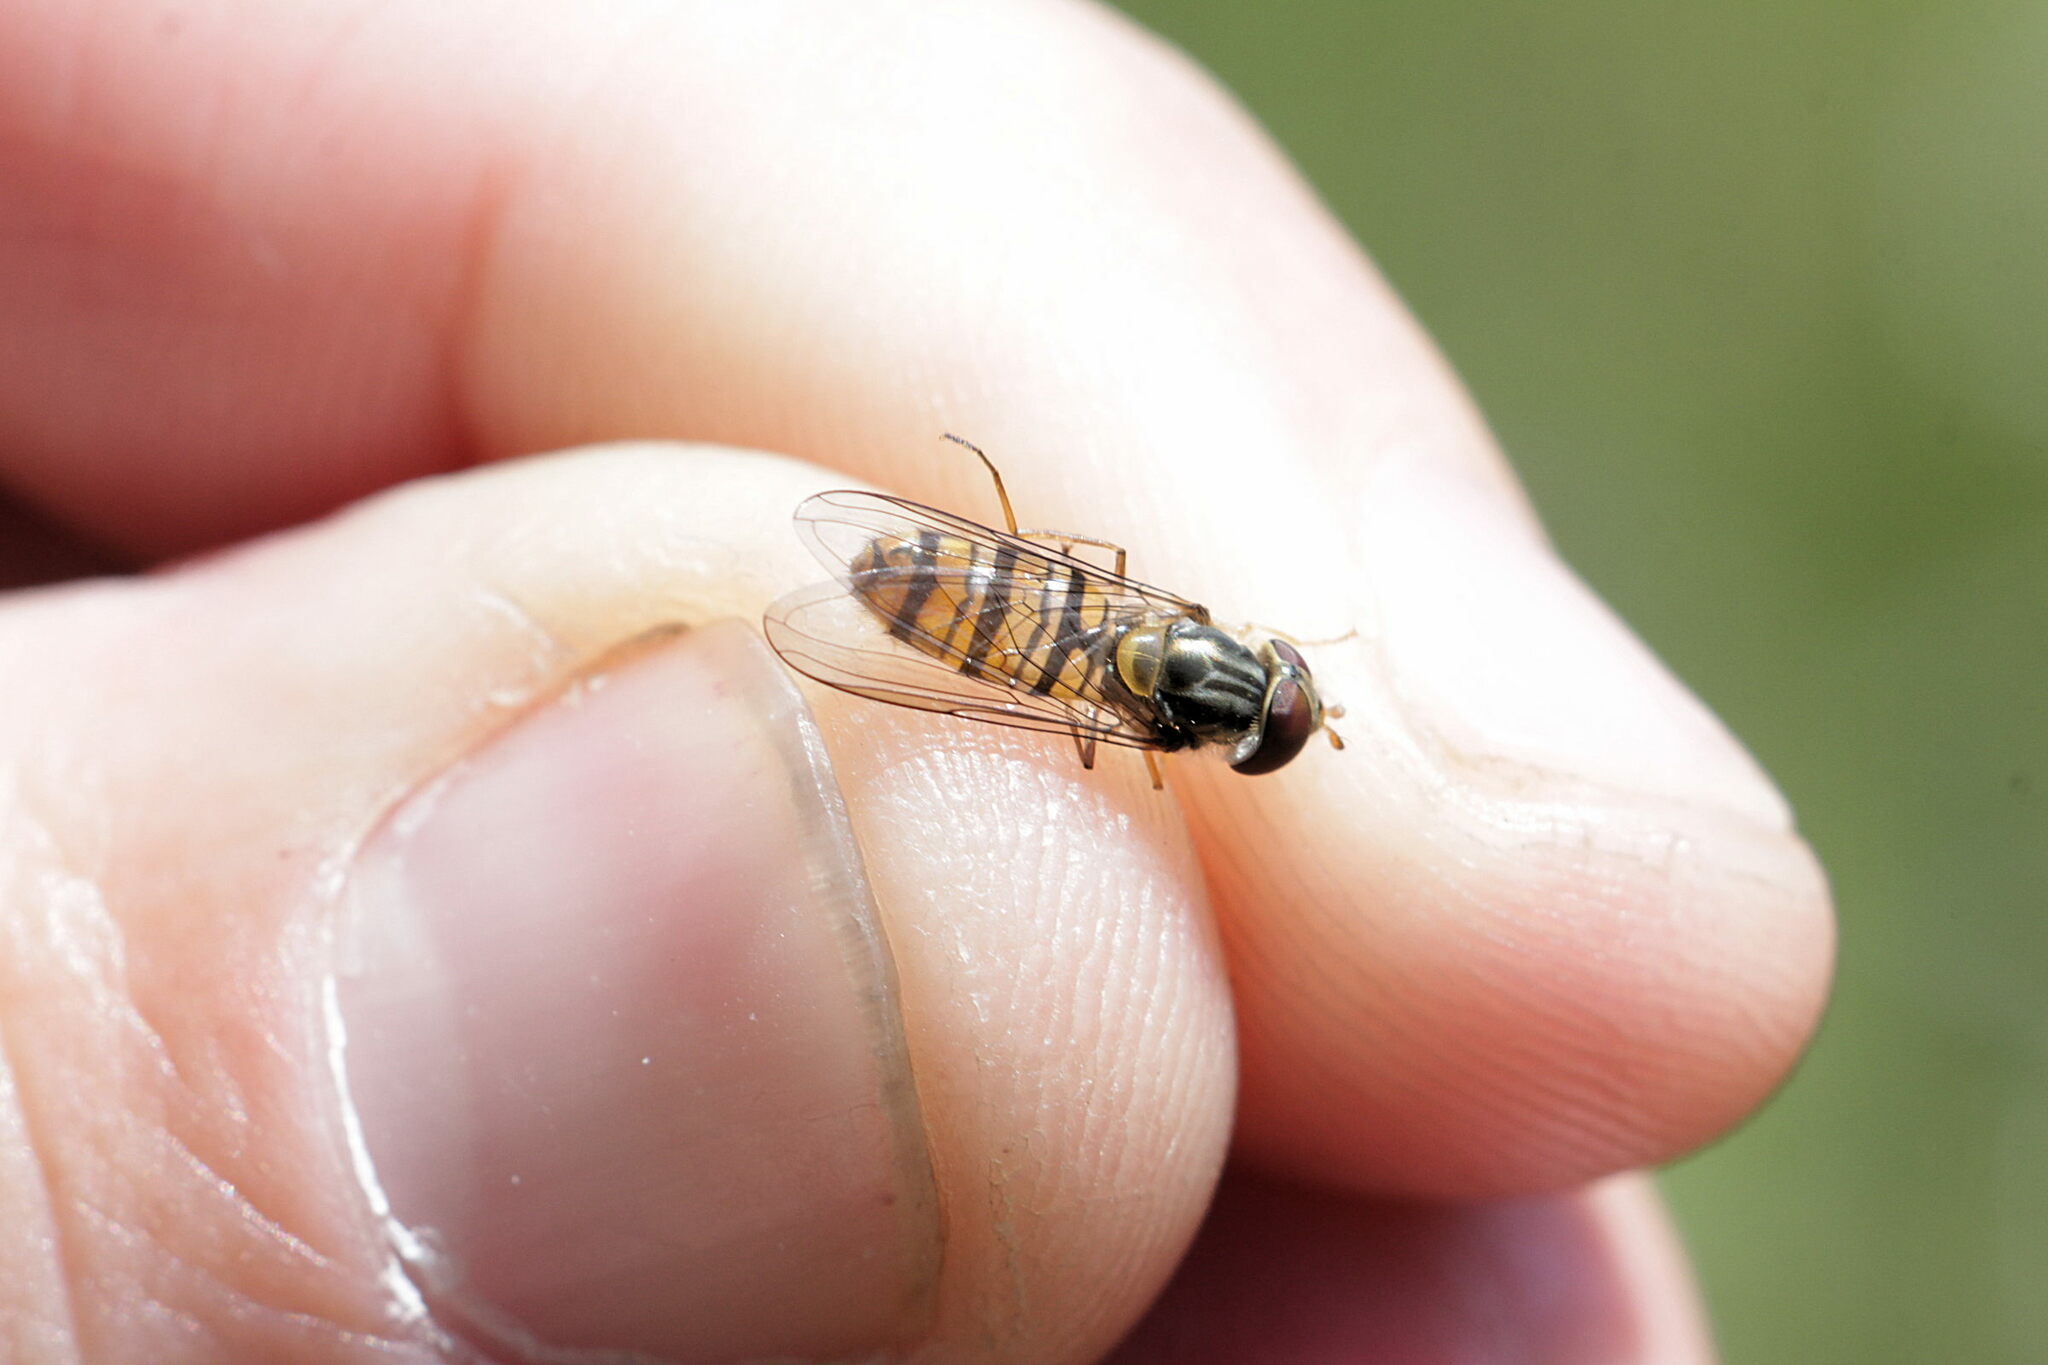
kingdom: Animalia
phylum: Arthropoda
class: Insecta
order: Diptera
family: Syrphidae
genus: Episyrphus
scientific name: Episyrphus balteatus
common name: Marmalade hoverfly
